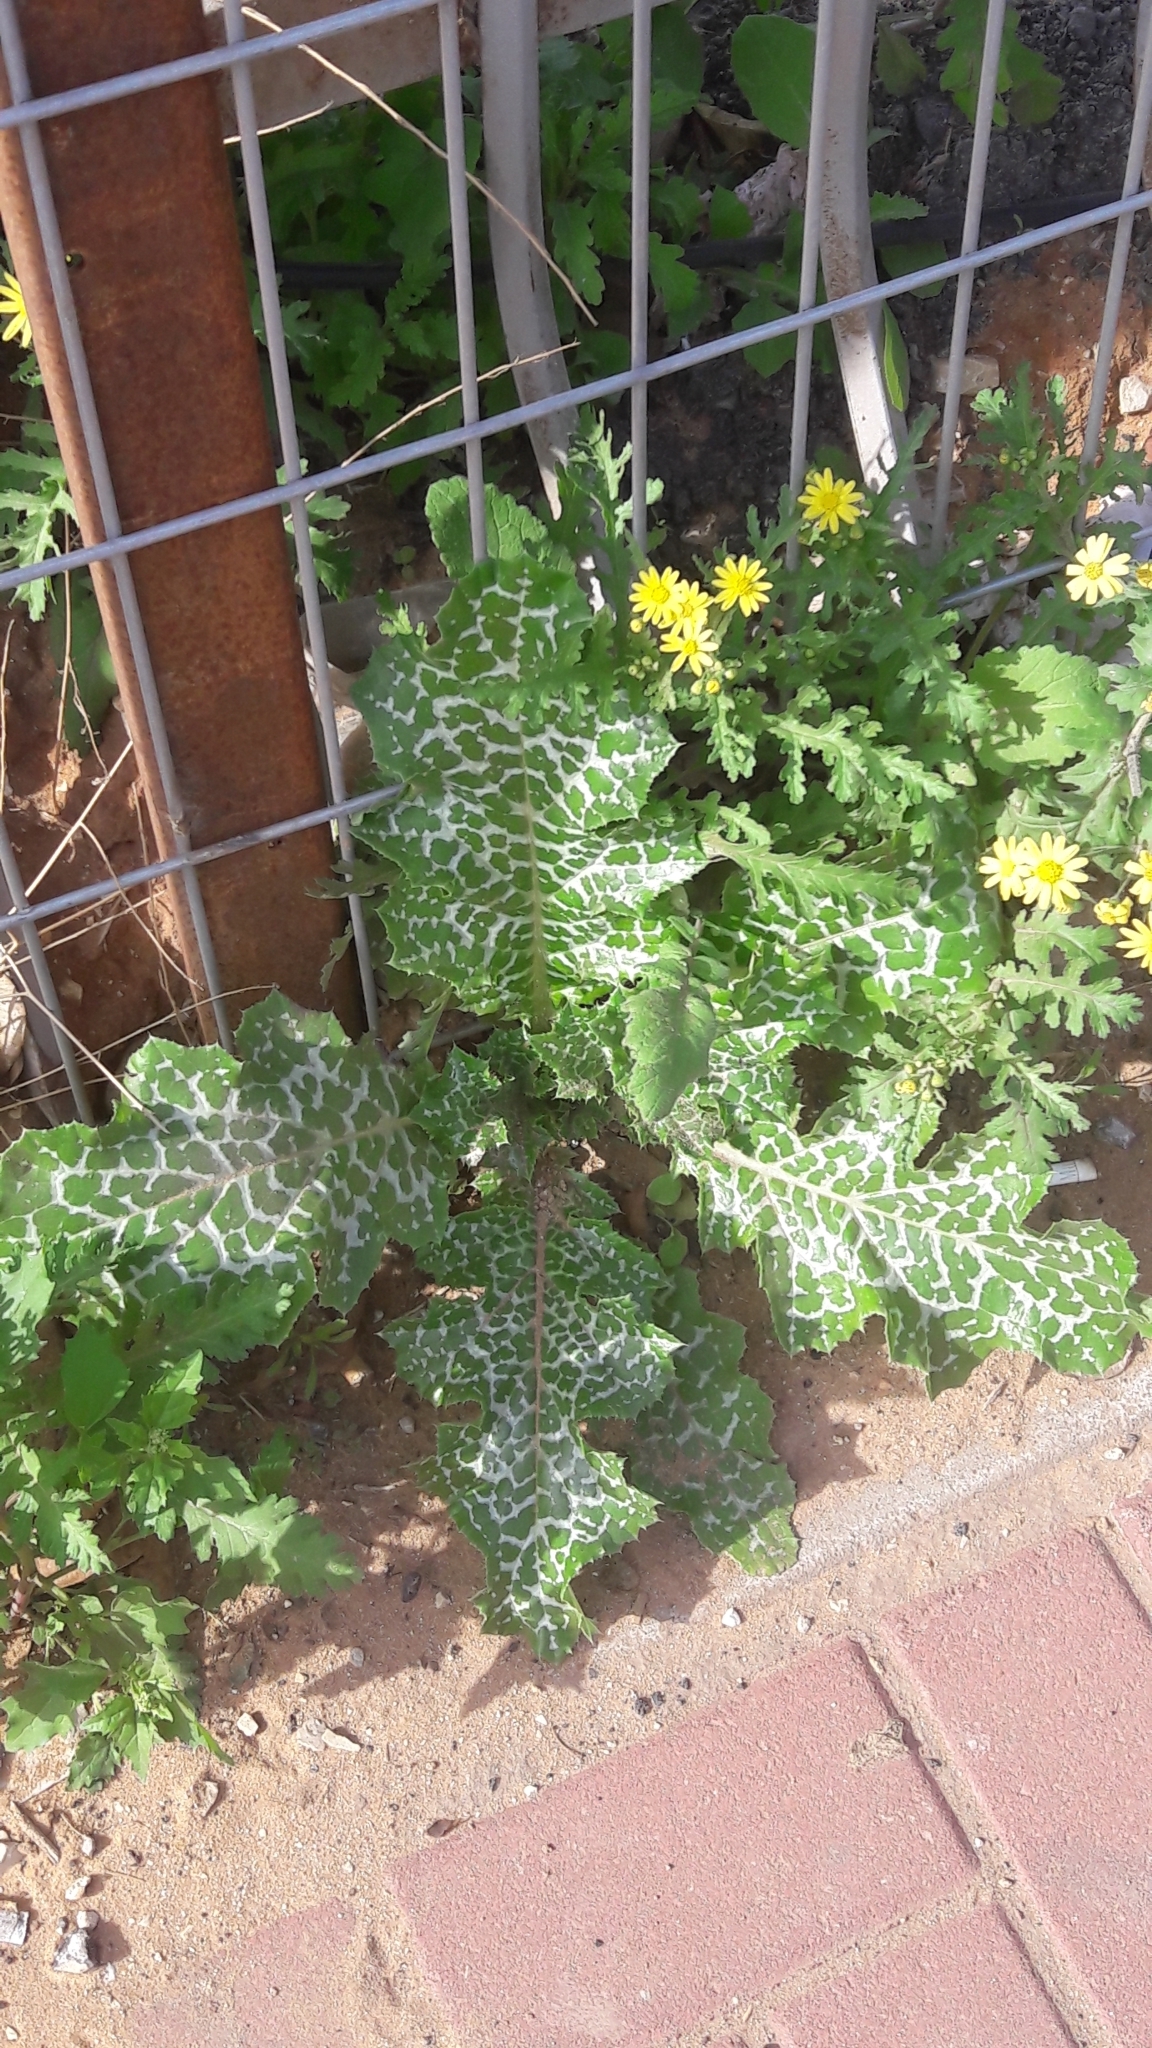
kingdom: Plantae
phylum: Tracheophyta
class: Magnoliopsida
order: Asterales
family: Asteraceae
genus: Silybum
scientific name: Silybum marianum
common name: Milk thistle
